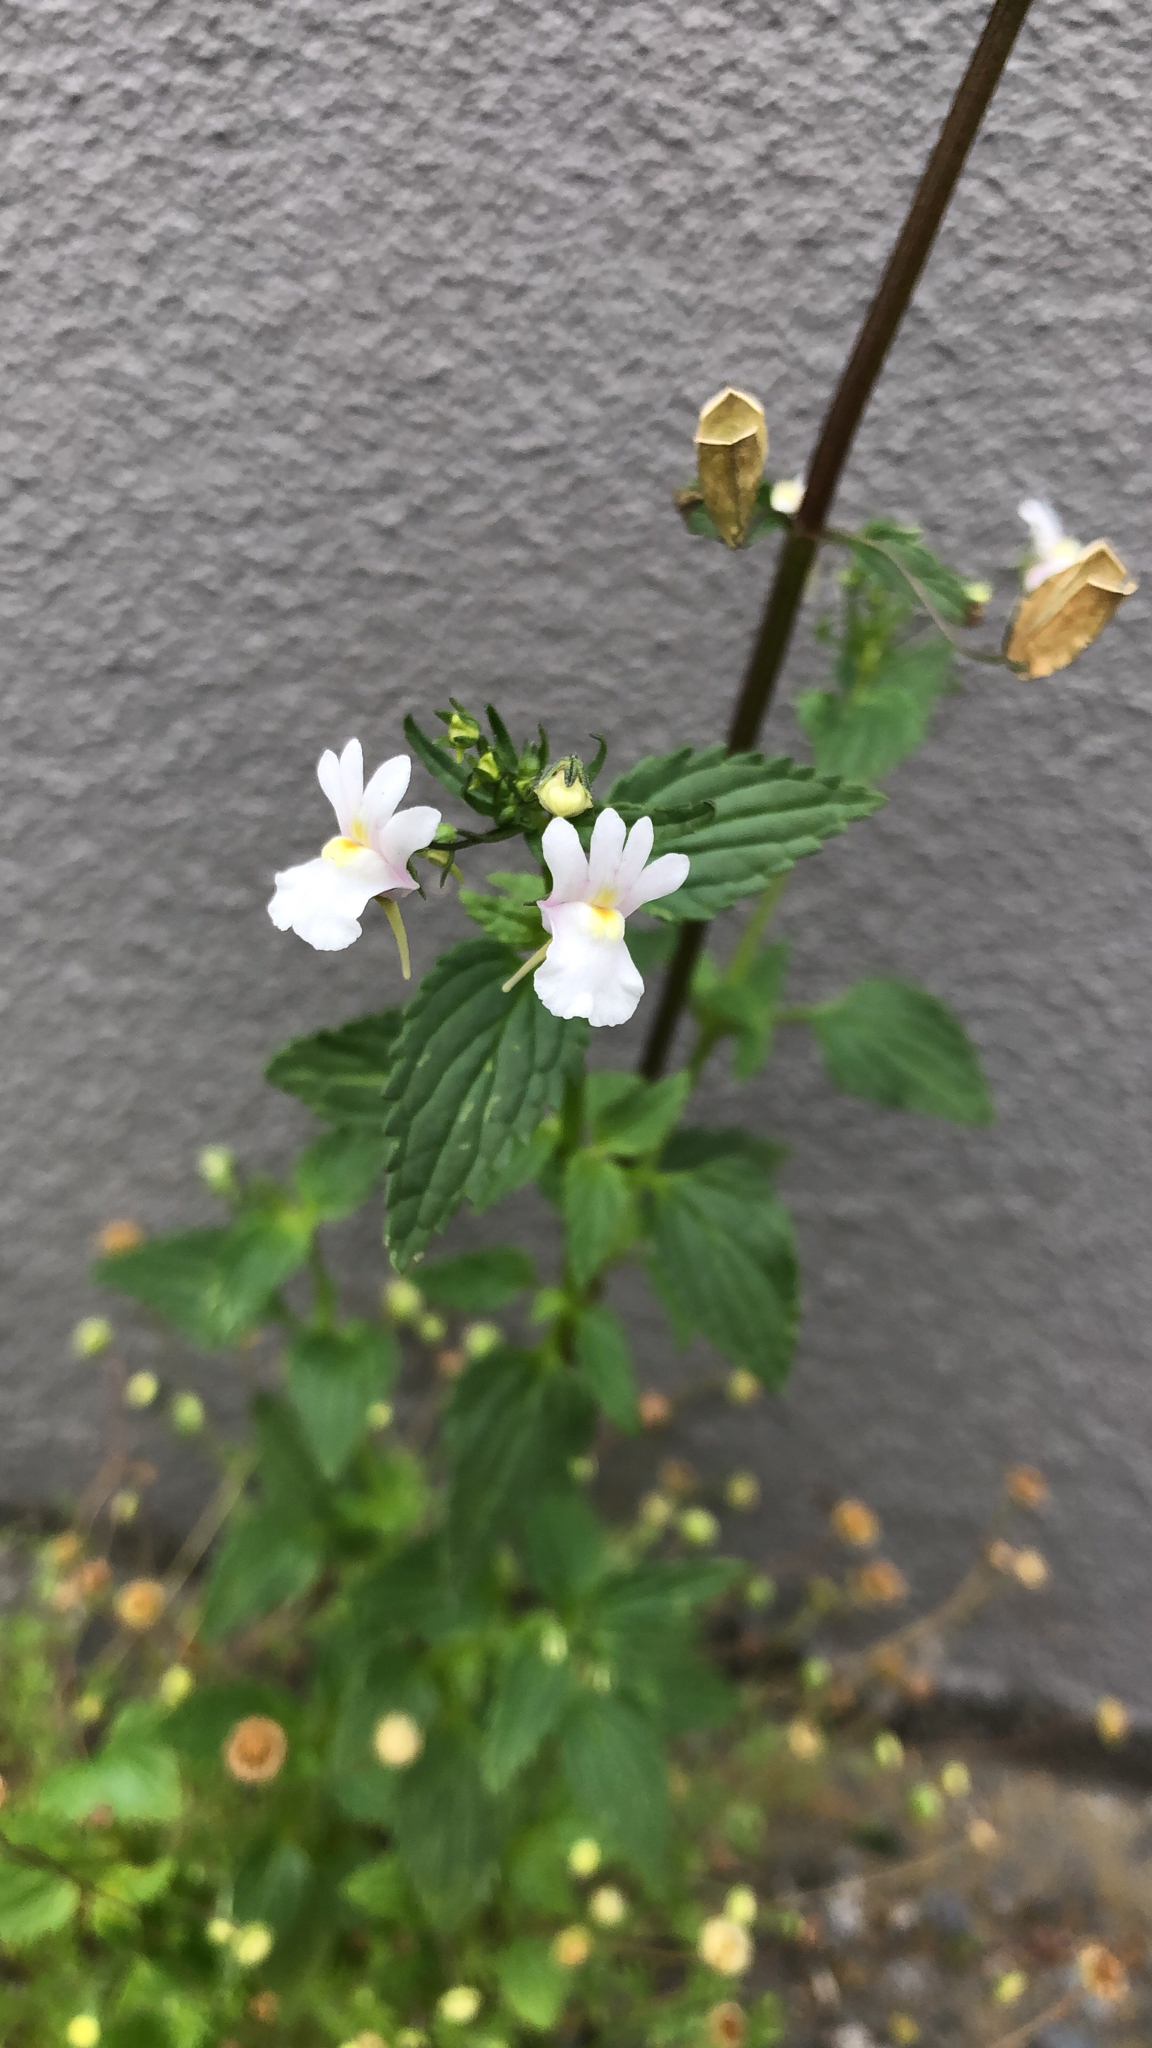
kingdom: Plantae
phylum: Tracheophyta
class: Magnoliopsida
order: Lamiales
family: Scrophulariaceae
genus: Nemesia
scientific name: Nemesia floribunda
